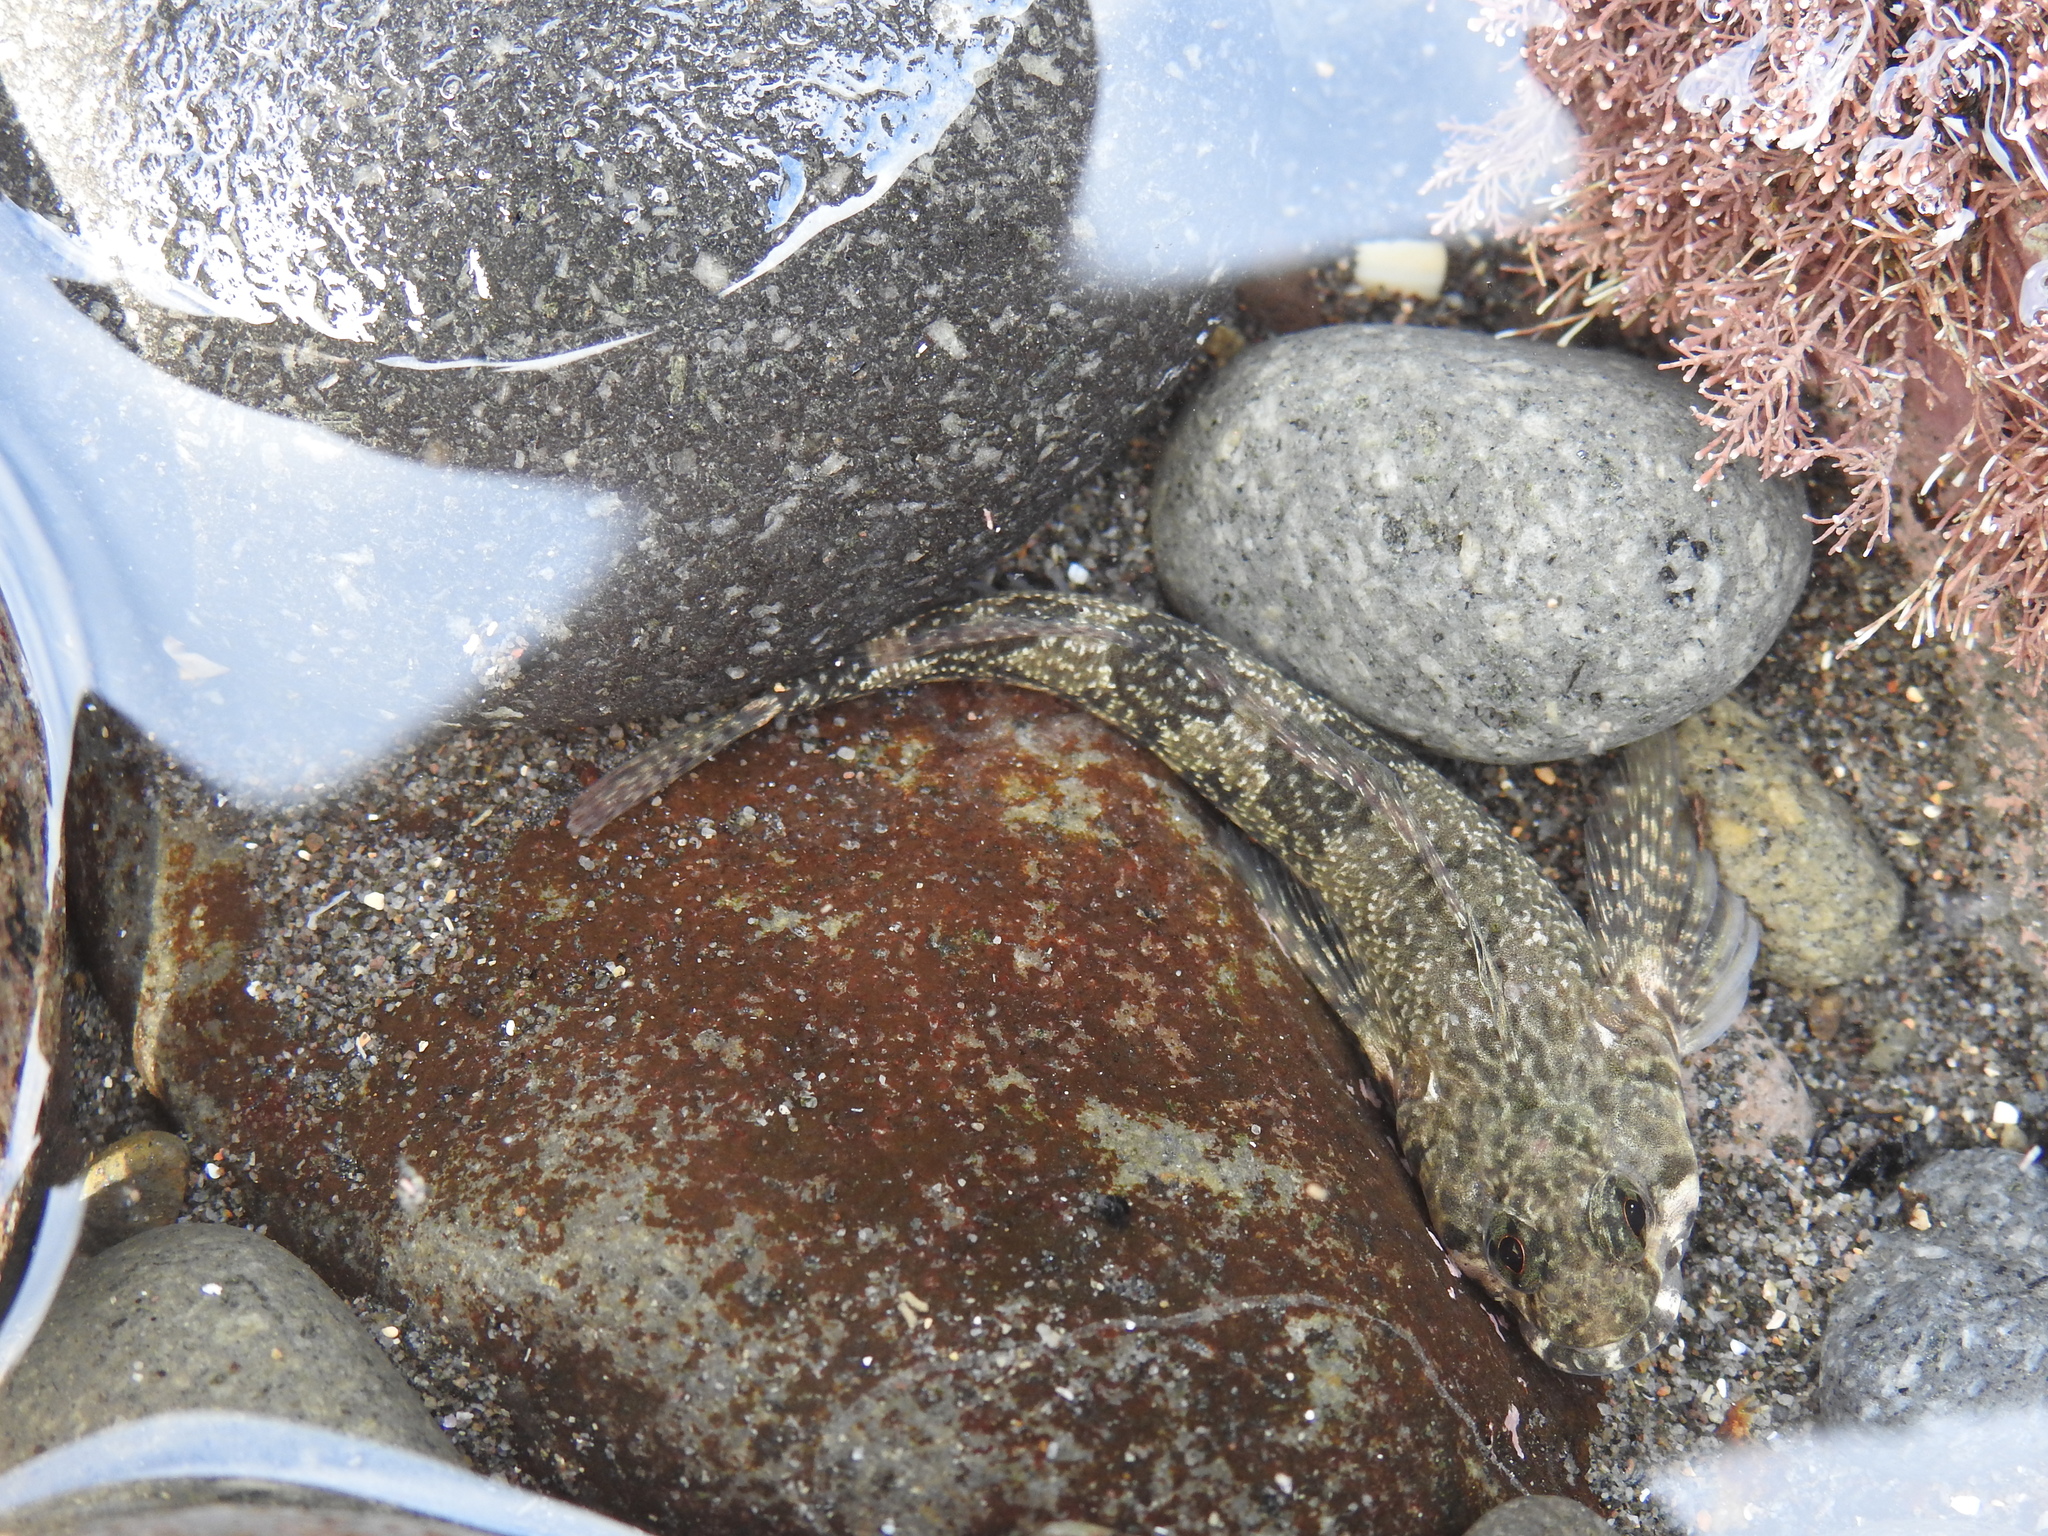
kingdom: Animalia
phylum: Chordata
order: Perciformes
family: Tripterygiidae
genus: Bellapiscis
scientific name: Bellapiscis medius
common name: Twister
